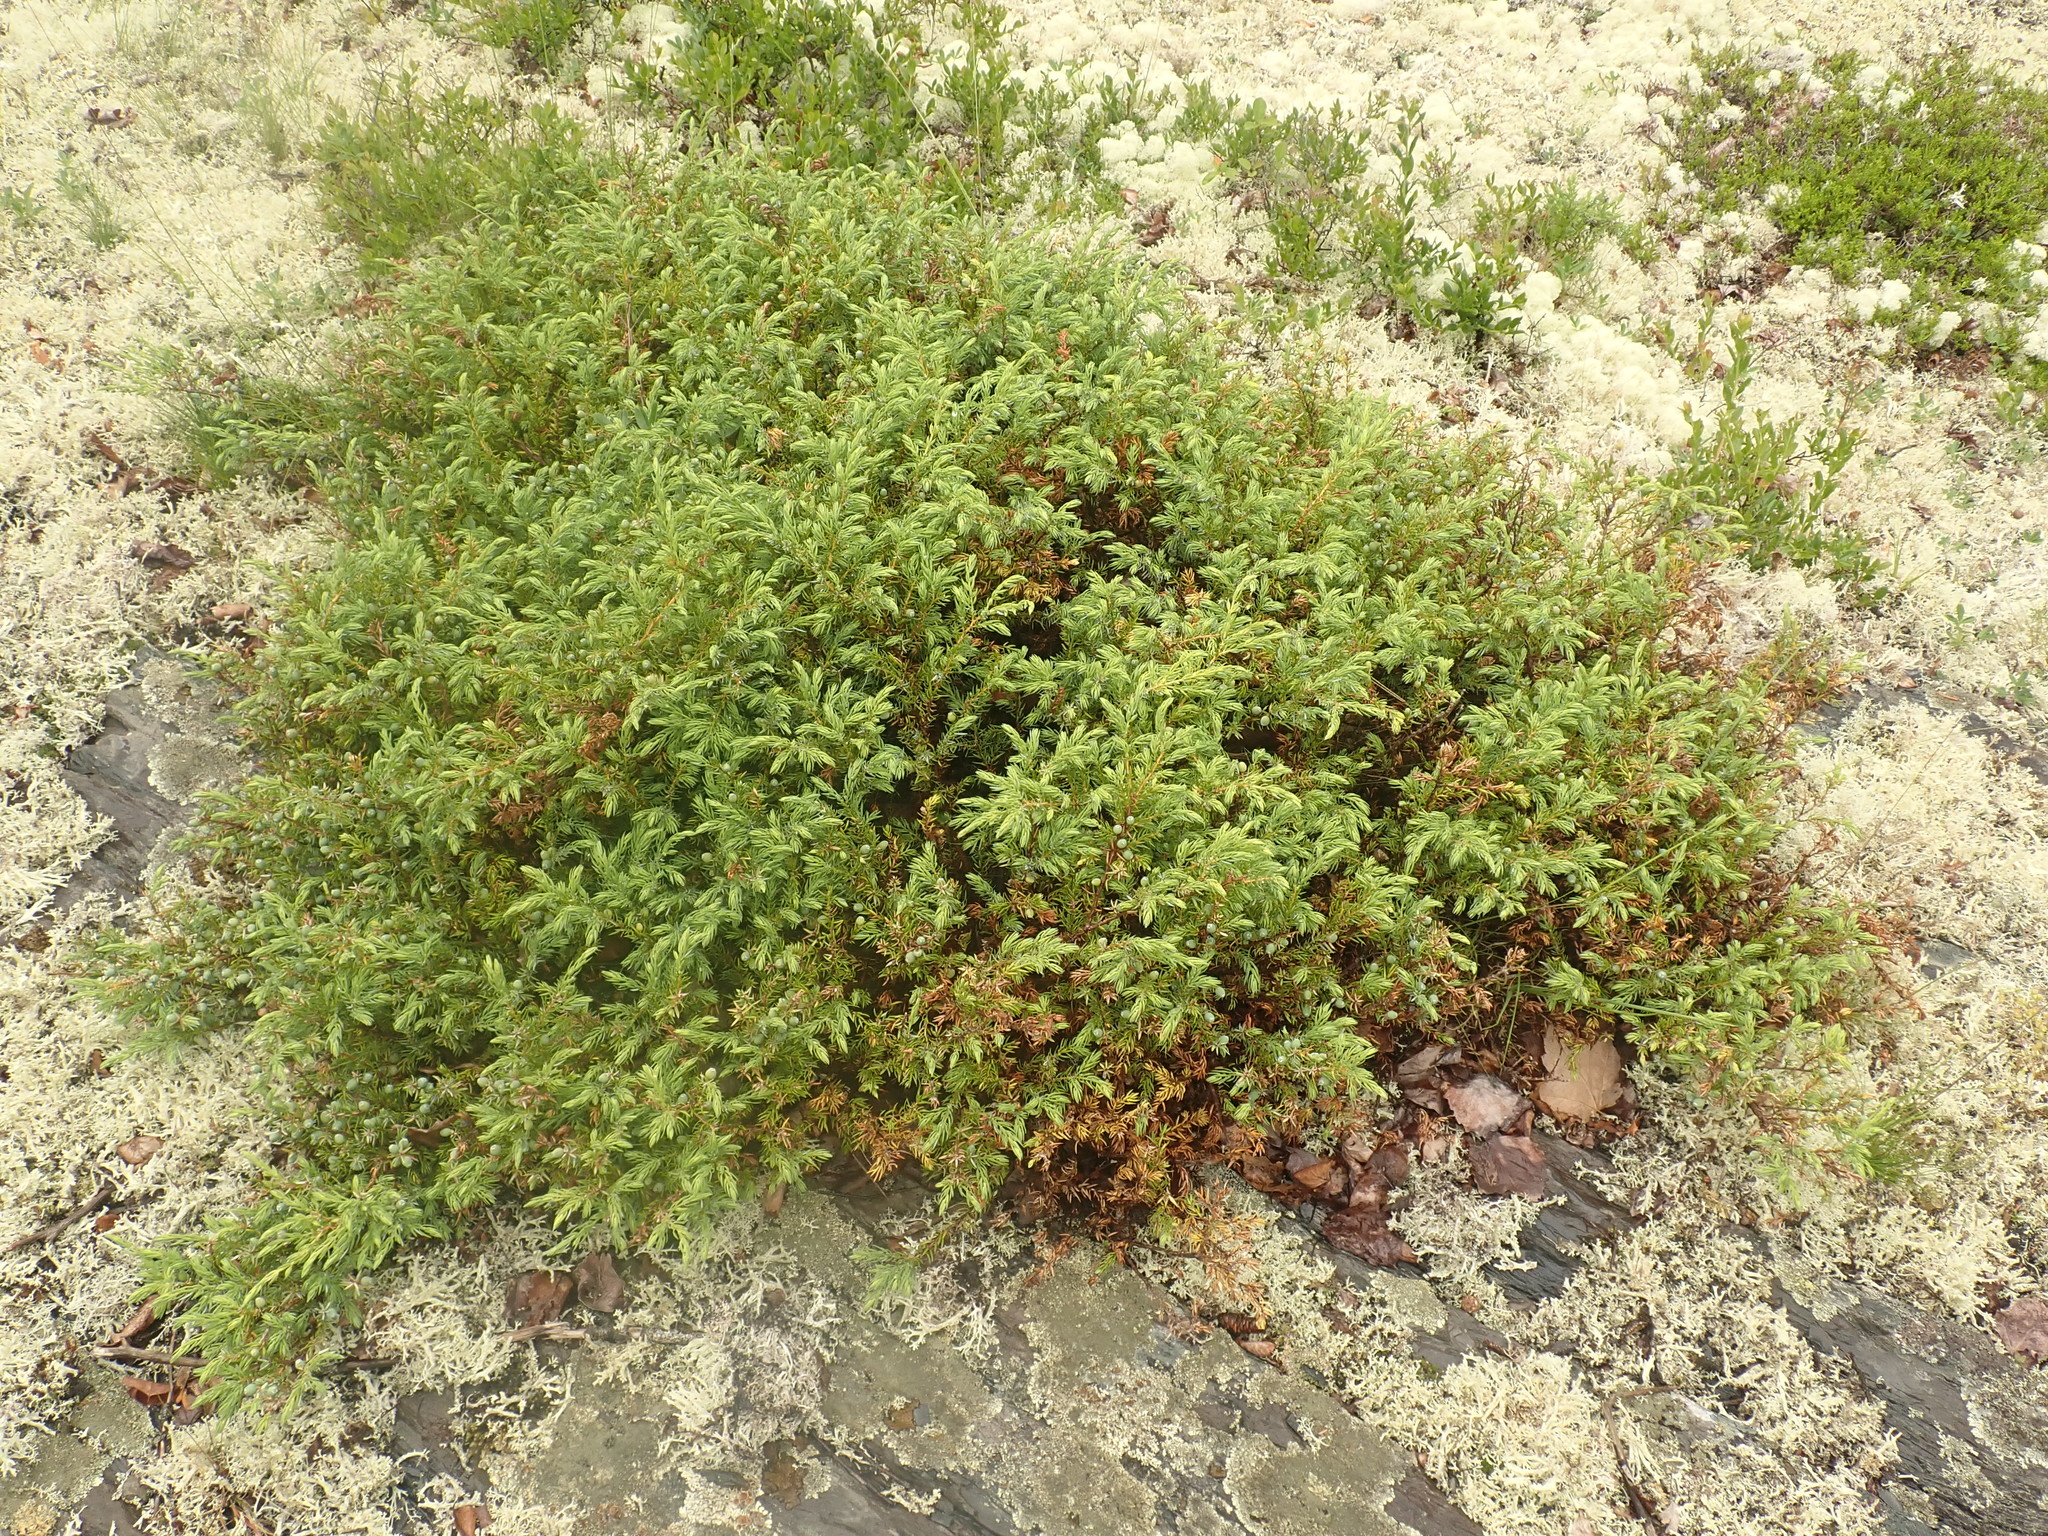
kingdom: Plantae
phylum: Tracheophyta
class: Pinopsida
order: Pinales
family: Cupressaceae
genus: Juniperus
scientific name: Juniperus communis
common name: Common juniper
